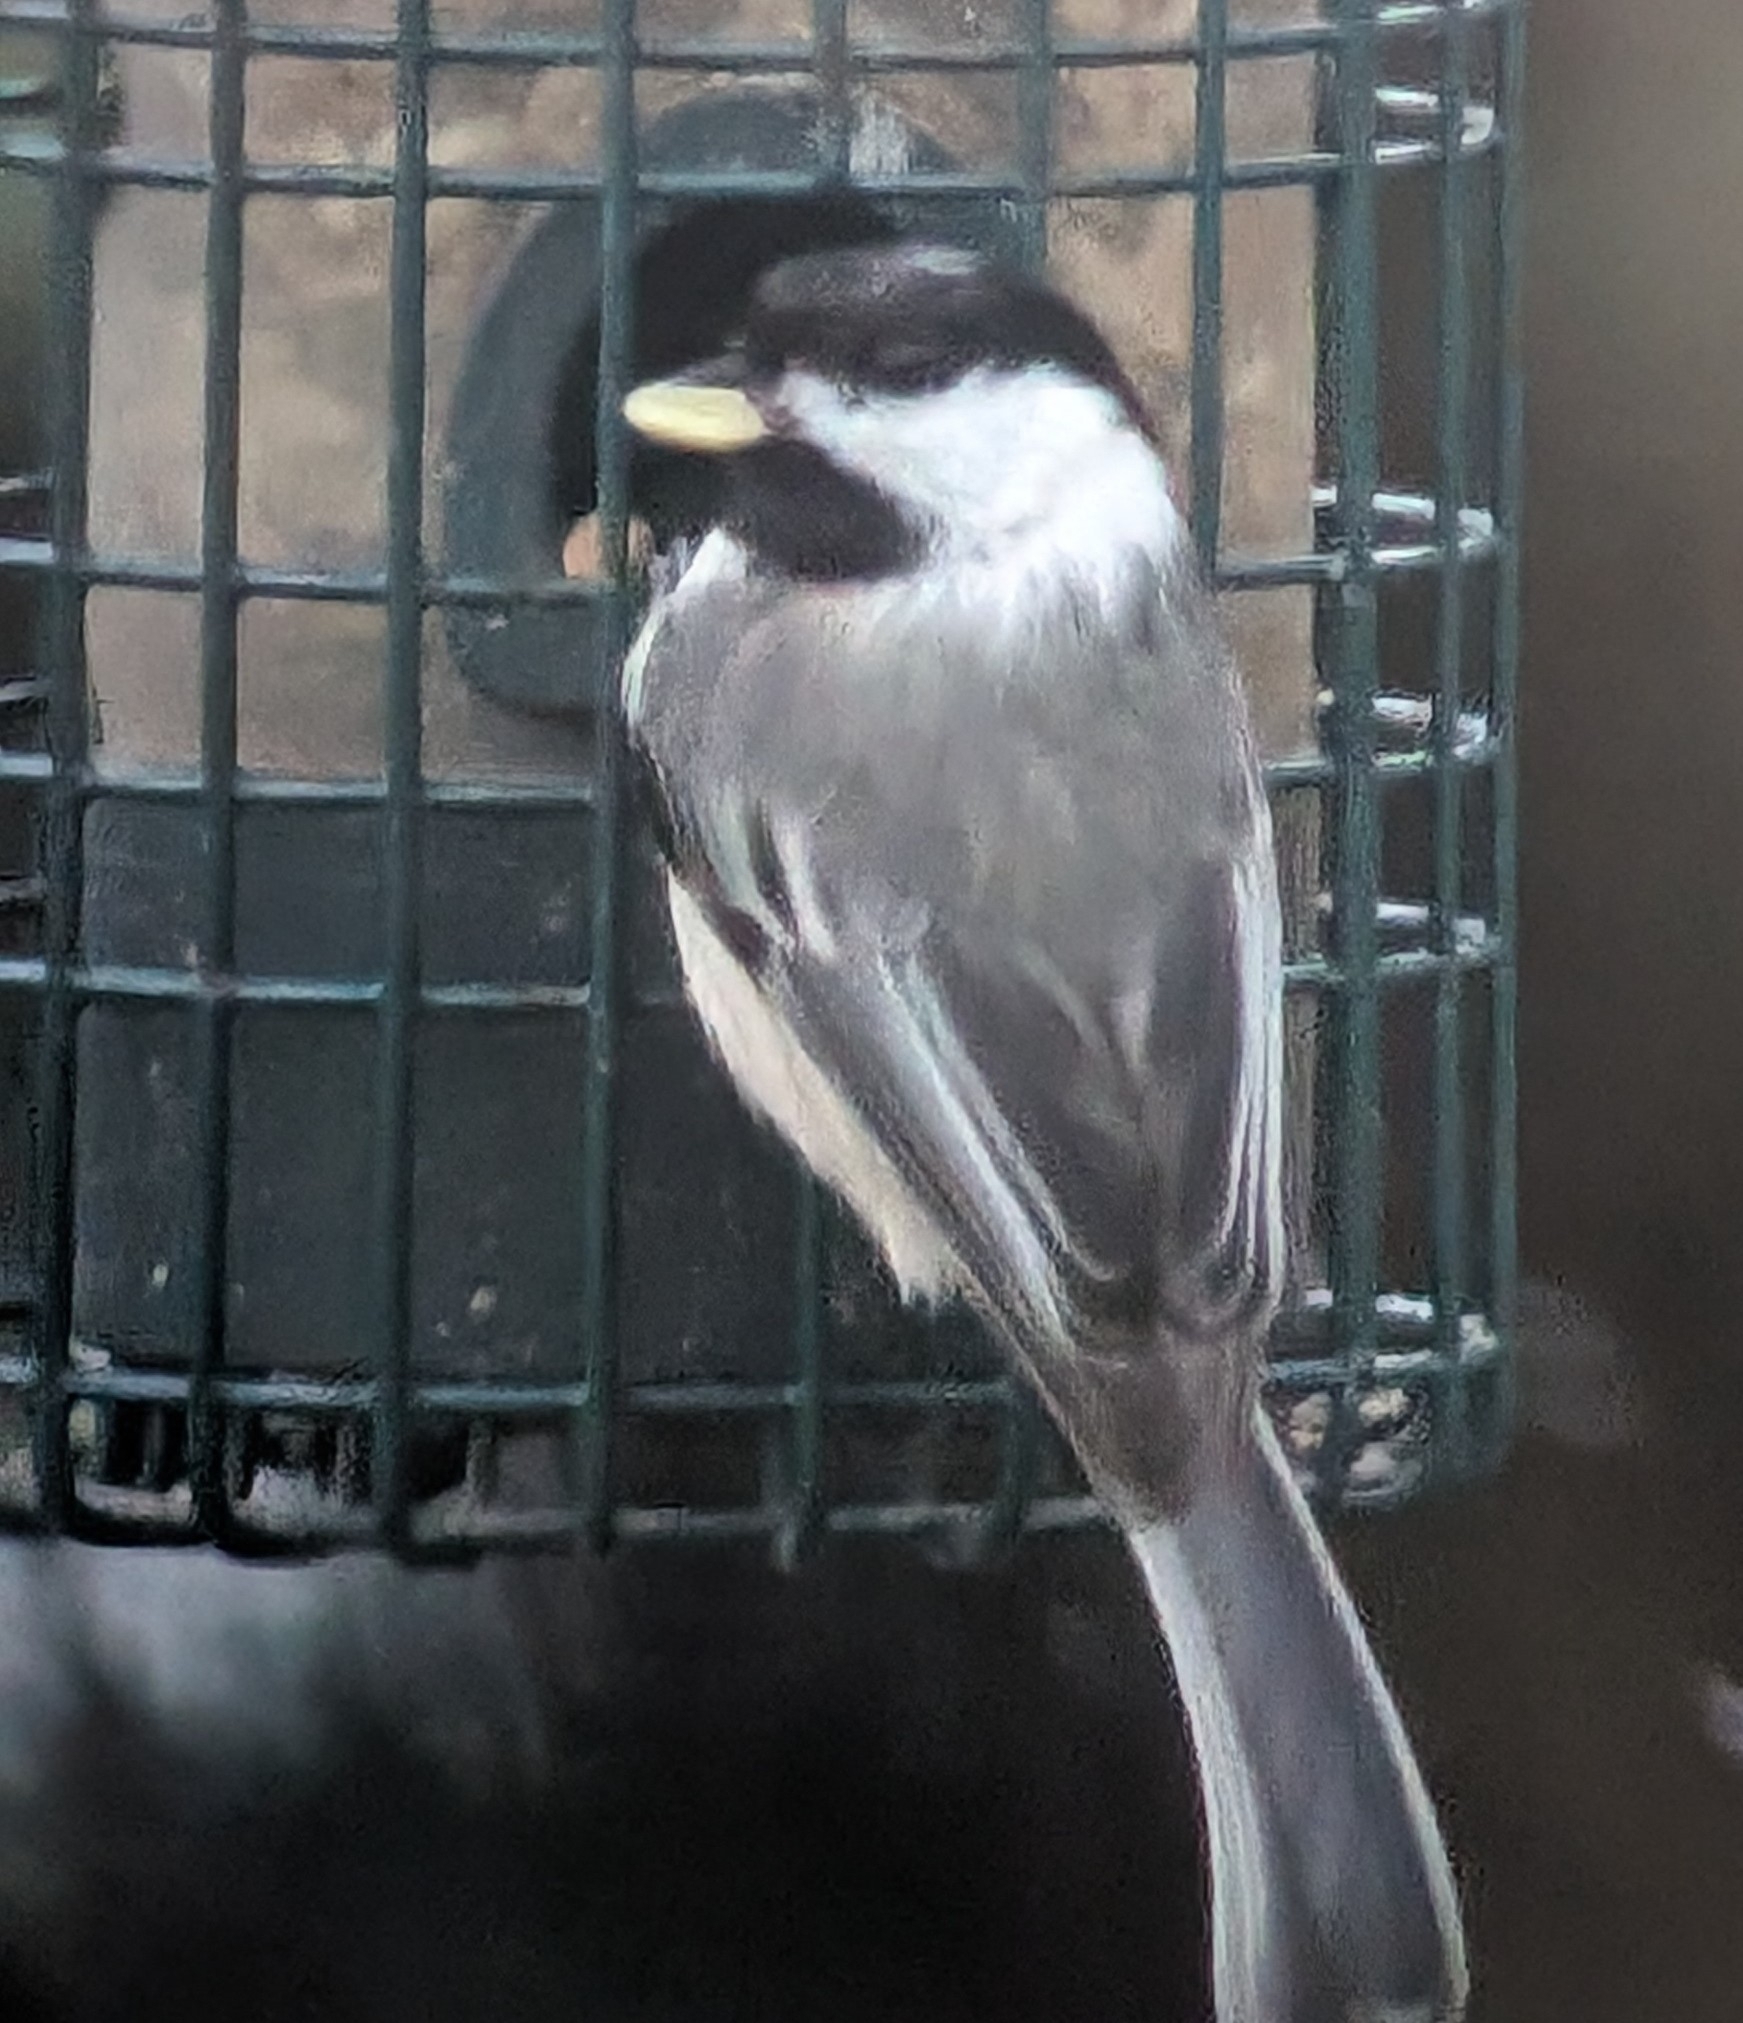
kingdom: Animalia
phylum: Chordata
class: Aves
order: Passeriformes
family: Paridae
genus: Poecile
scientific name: Poecile atricapillus
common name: Black-capped chickadee
